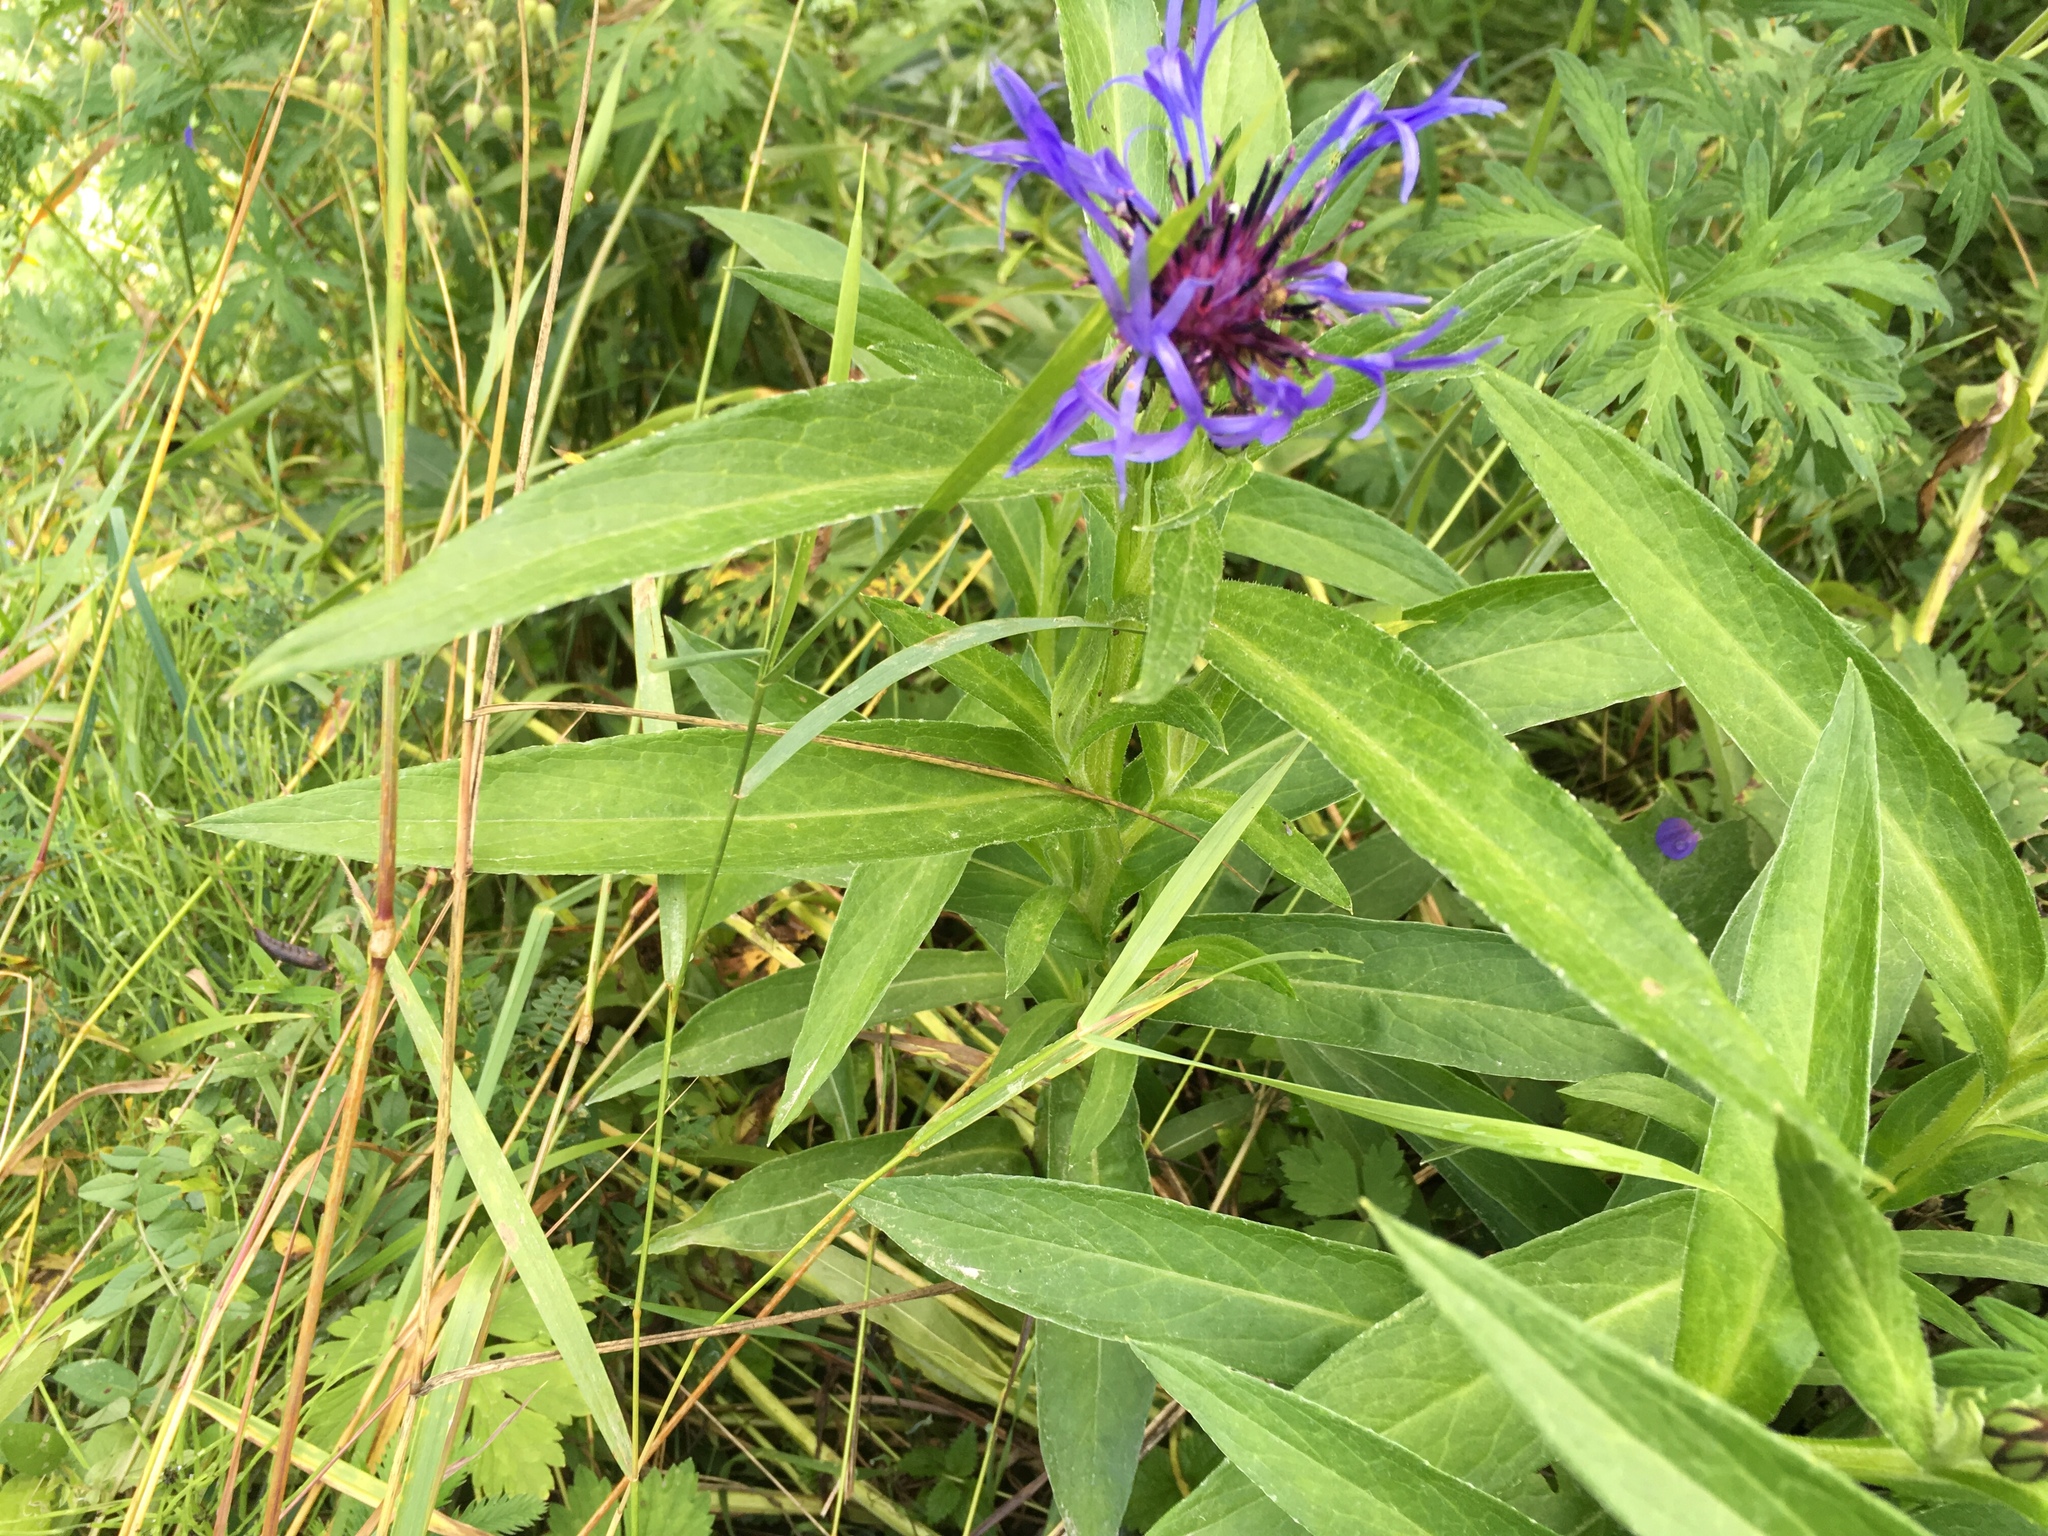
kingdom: Plantae
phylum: Tracheophyta
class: Magnoliopsida
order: Asterales
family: Asteraceae
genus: Centaurea
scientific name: Centaurea montana
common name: Perennial cornflower
